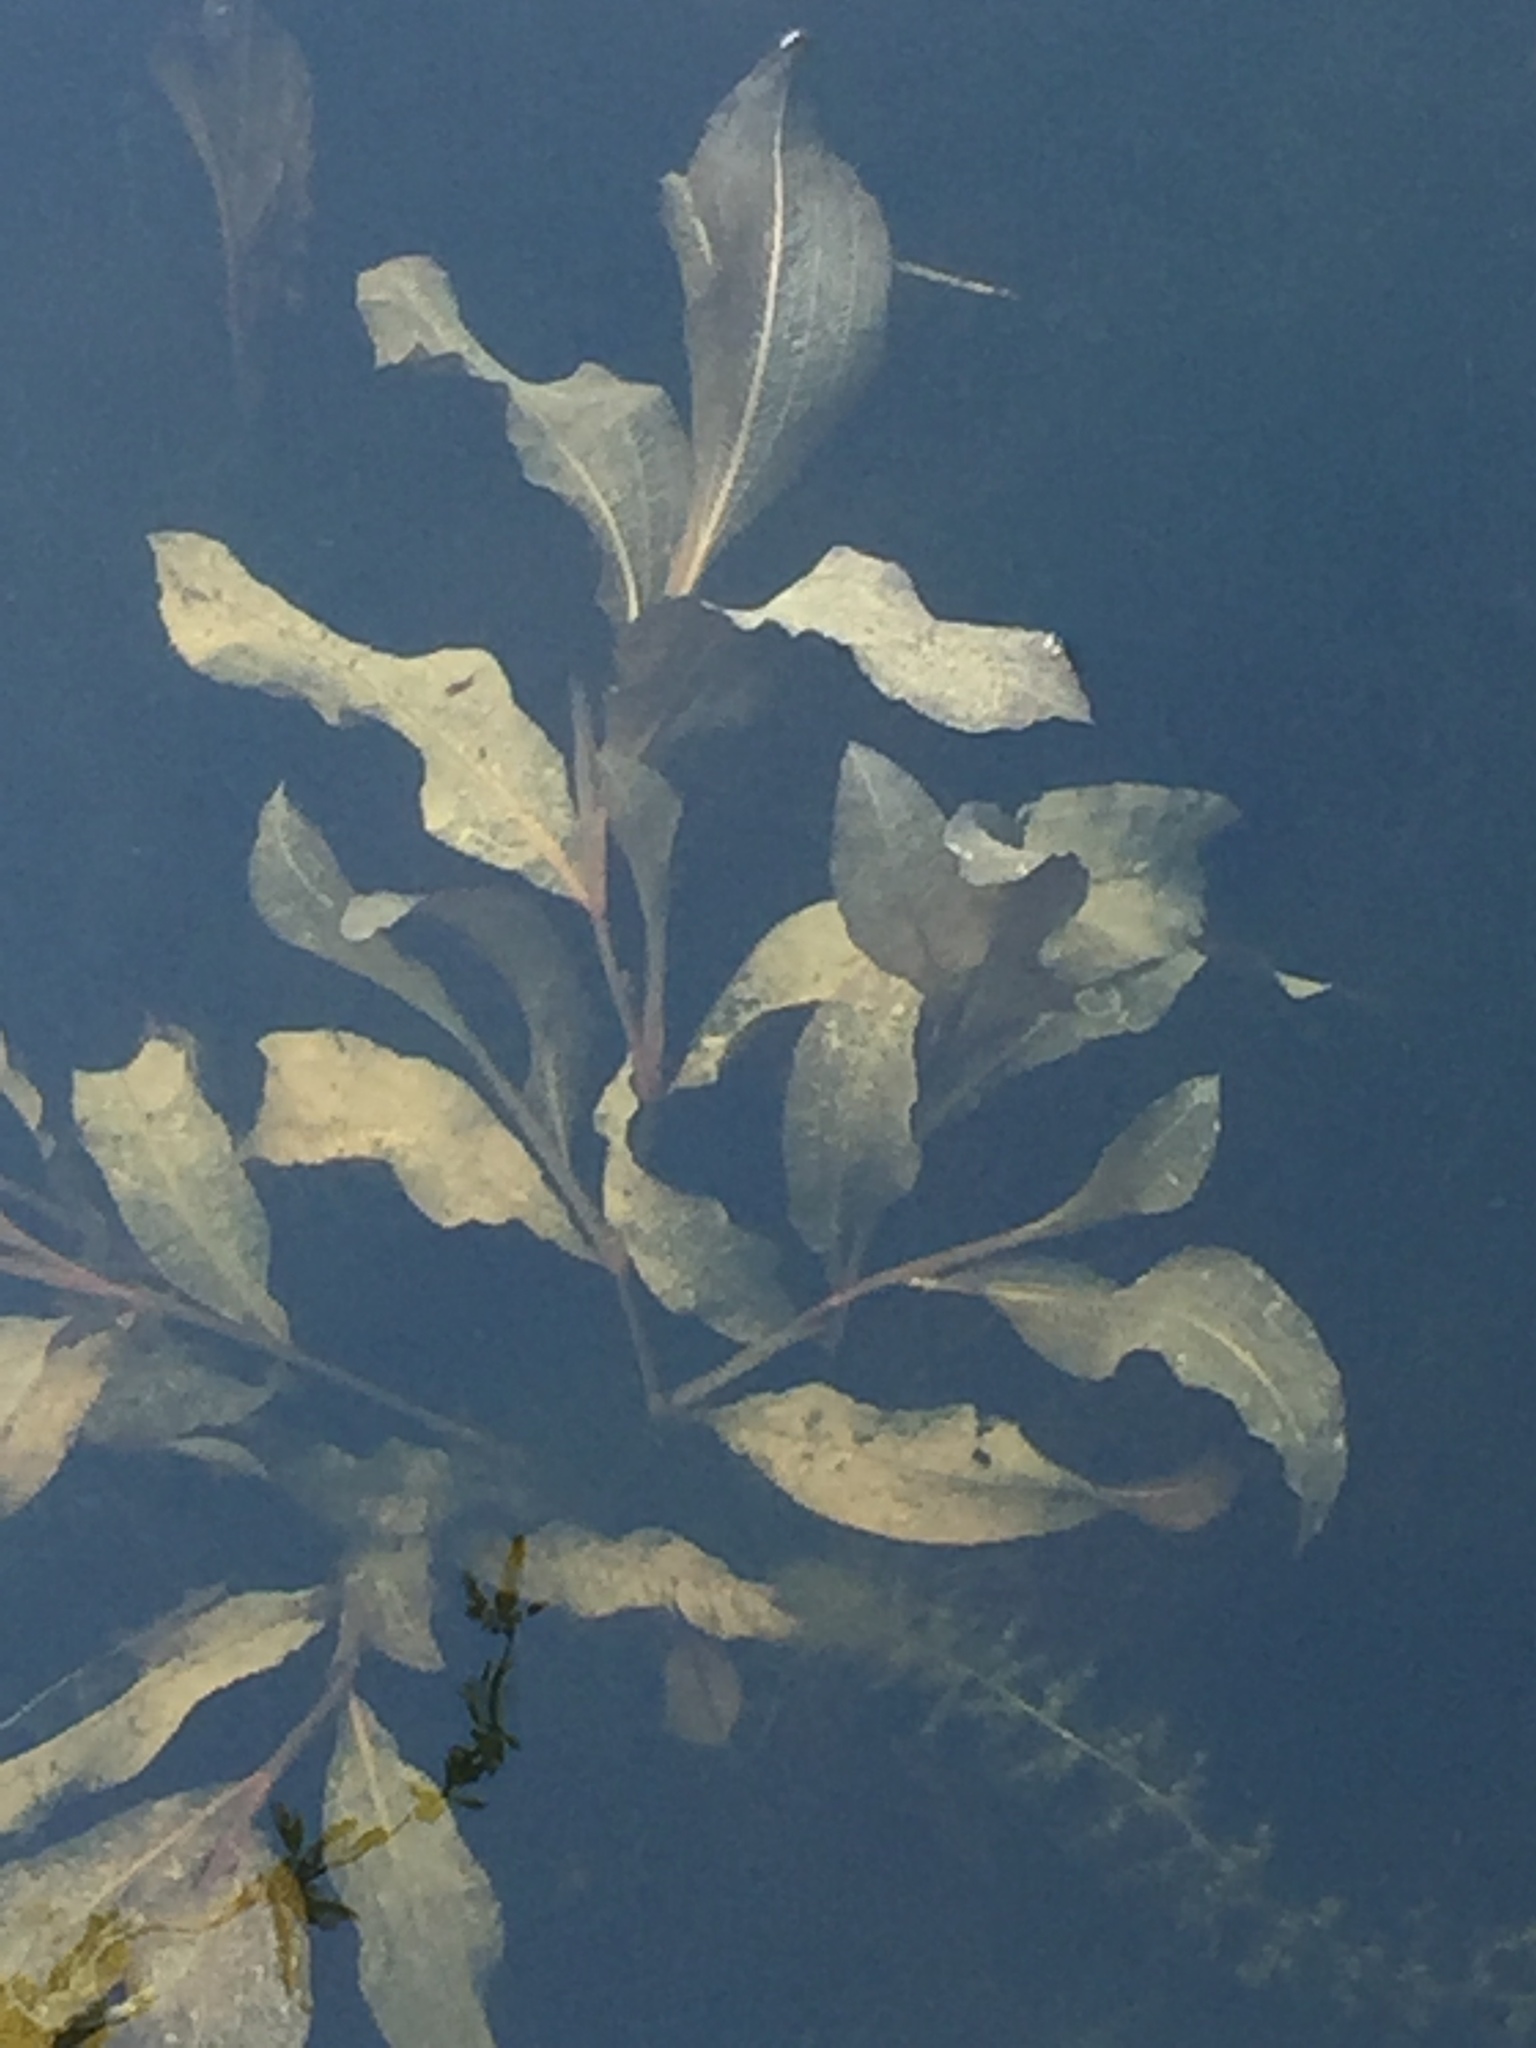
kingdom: Plantae
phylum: Tracheophyta
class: Liliopsida
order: Alismatales
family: Potamogetonaceae
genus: Potamogeton
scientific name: Potamogeton lucens
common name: Shining pondweed
